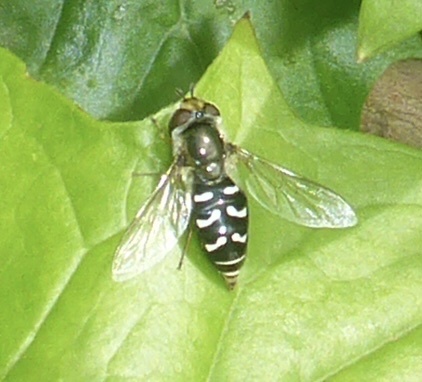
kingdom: Animalia
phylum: Arthropoda
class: Insecta
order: Diptera
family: Syrphidae
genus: Scaeva
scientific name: Scaeva affinis
